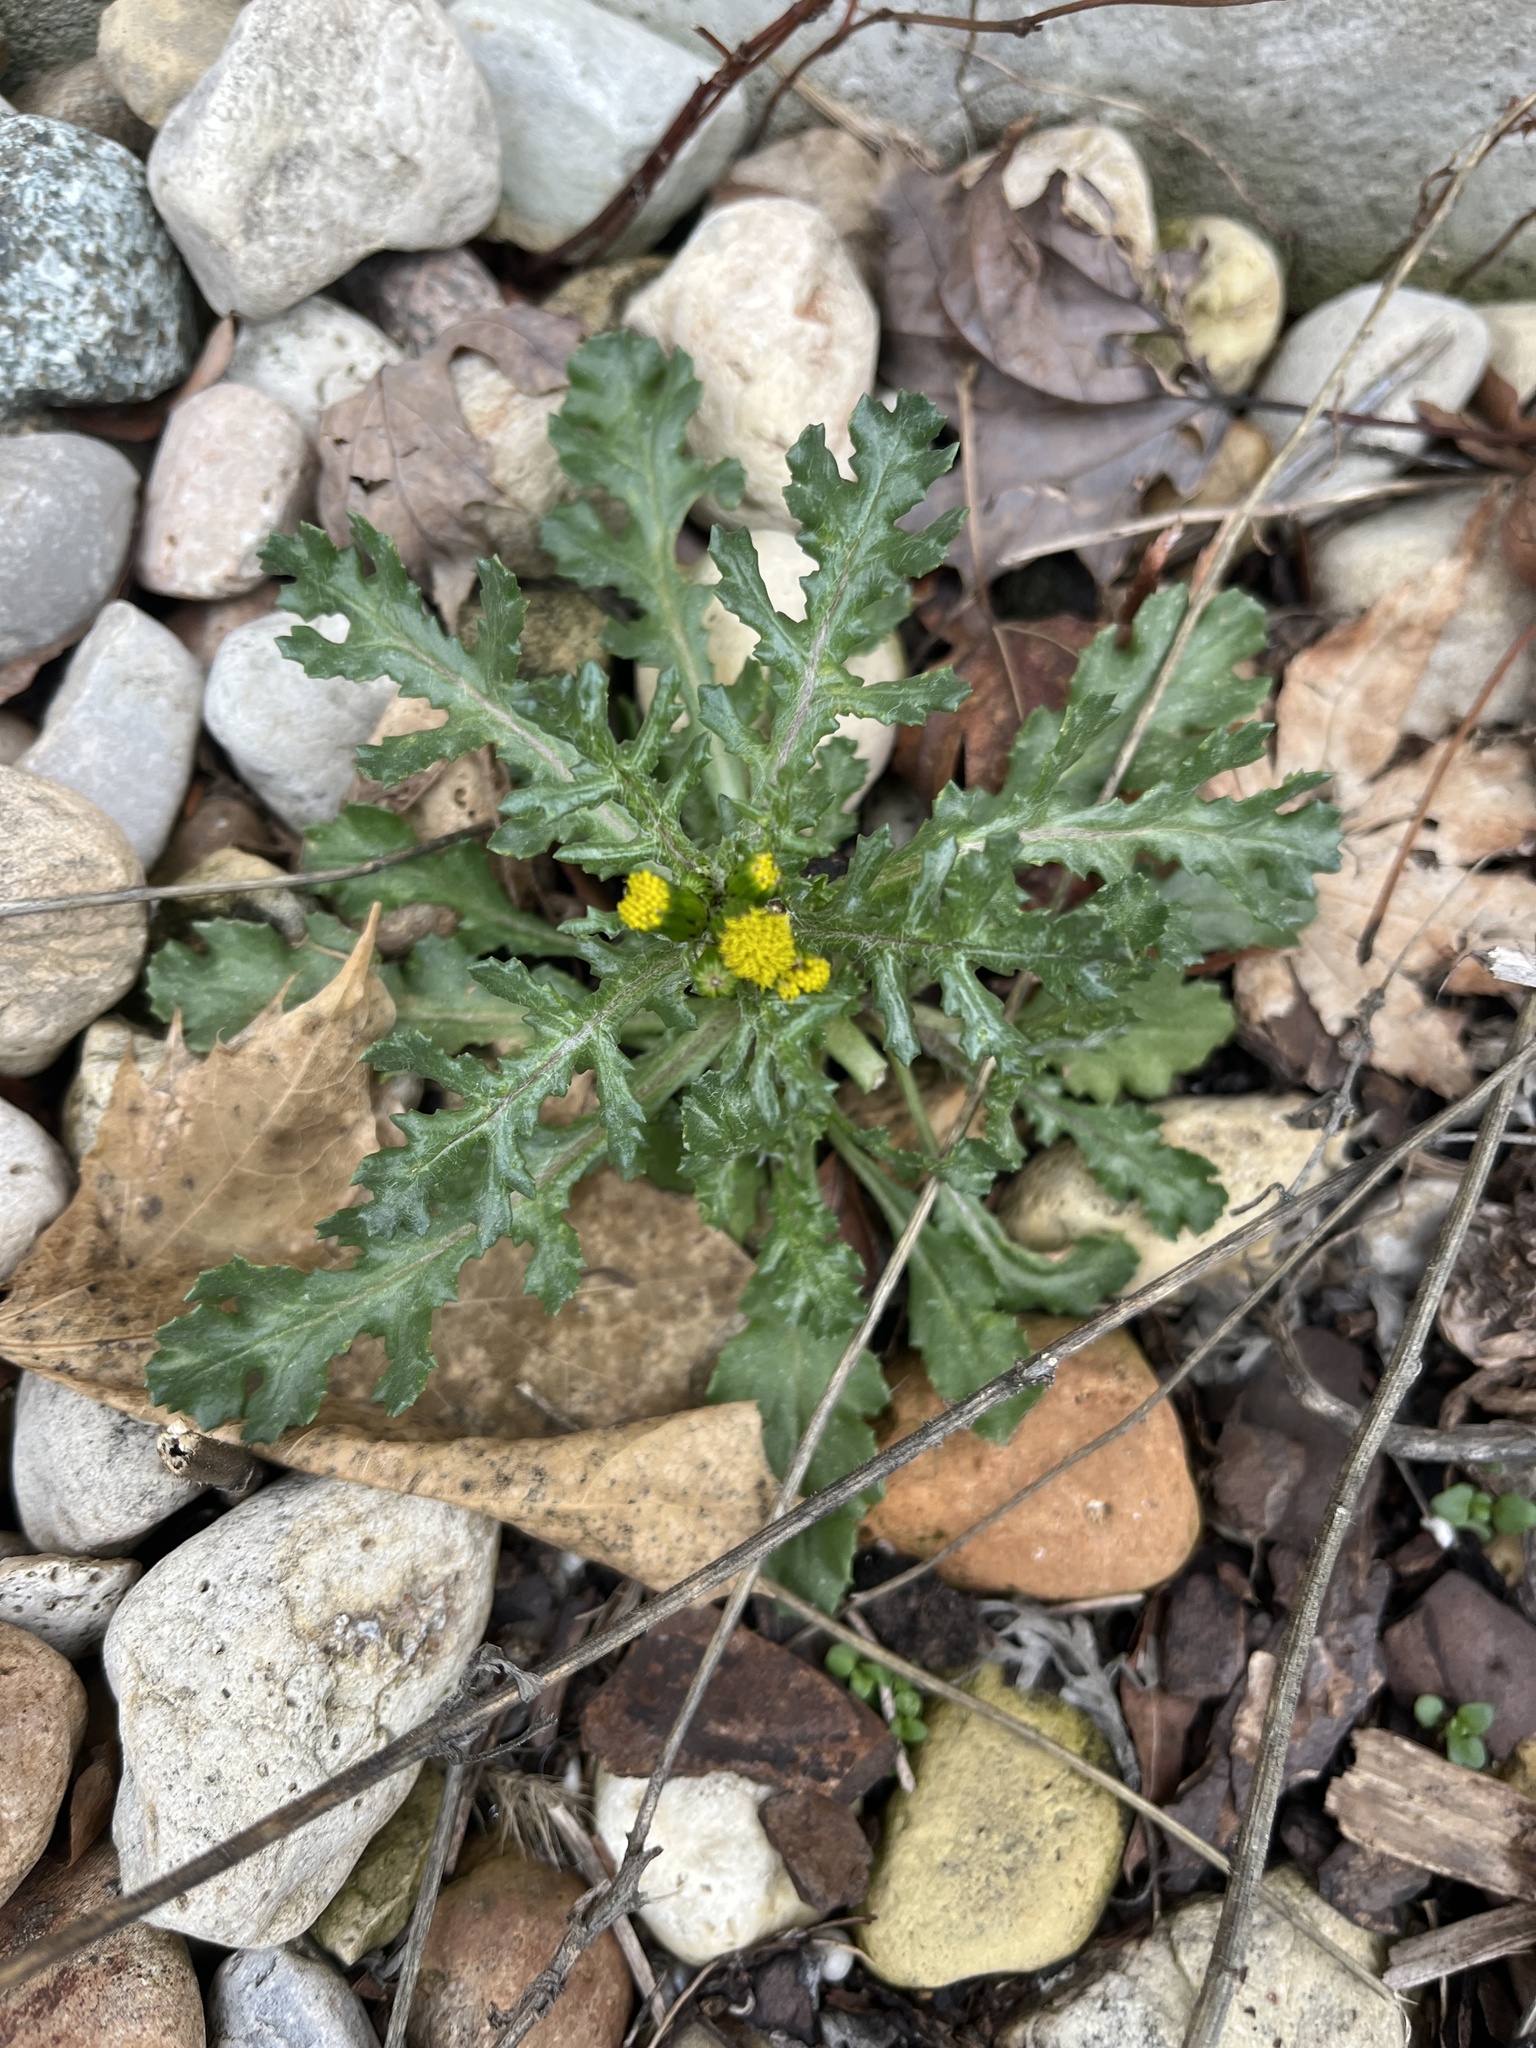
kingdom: Plantae
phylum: Tracheophyta
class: Magnoliopsida
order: Asterales
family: Asteraceae
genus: Senecio
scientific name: Senecio vulgaris
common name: Old-man-in-the-spring
